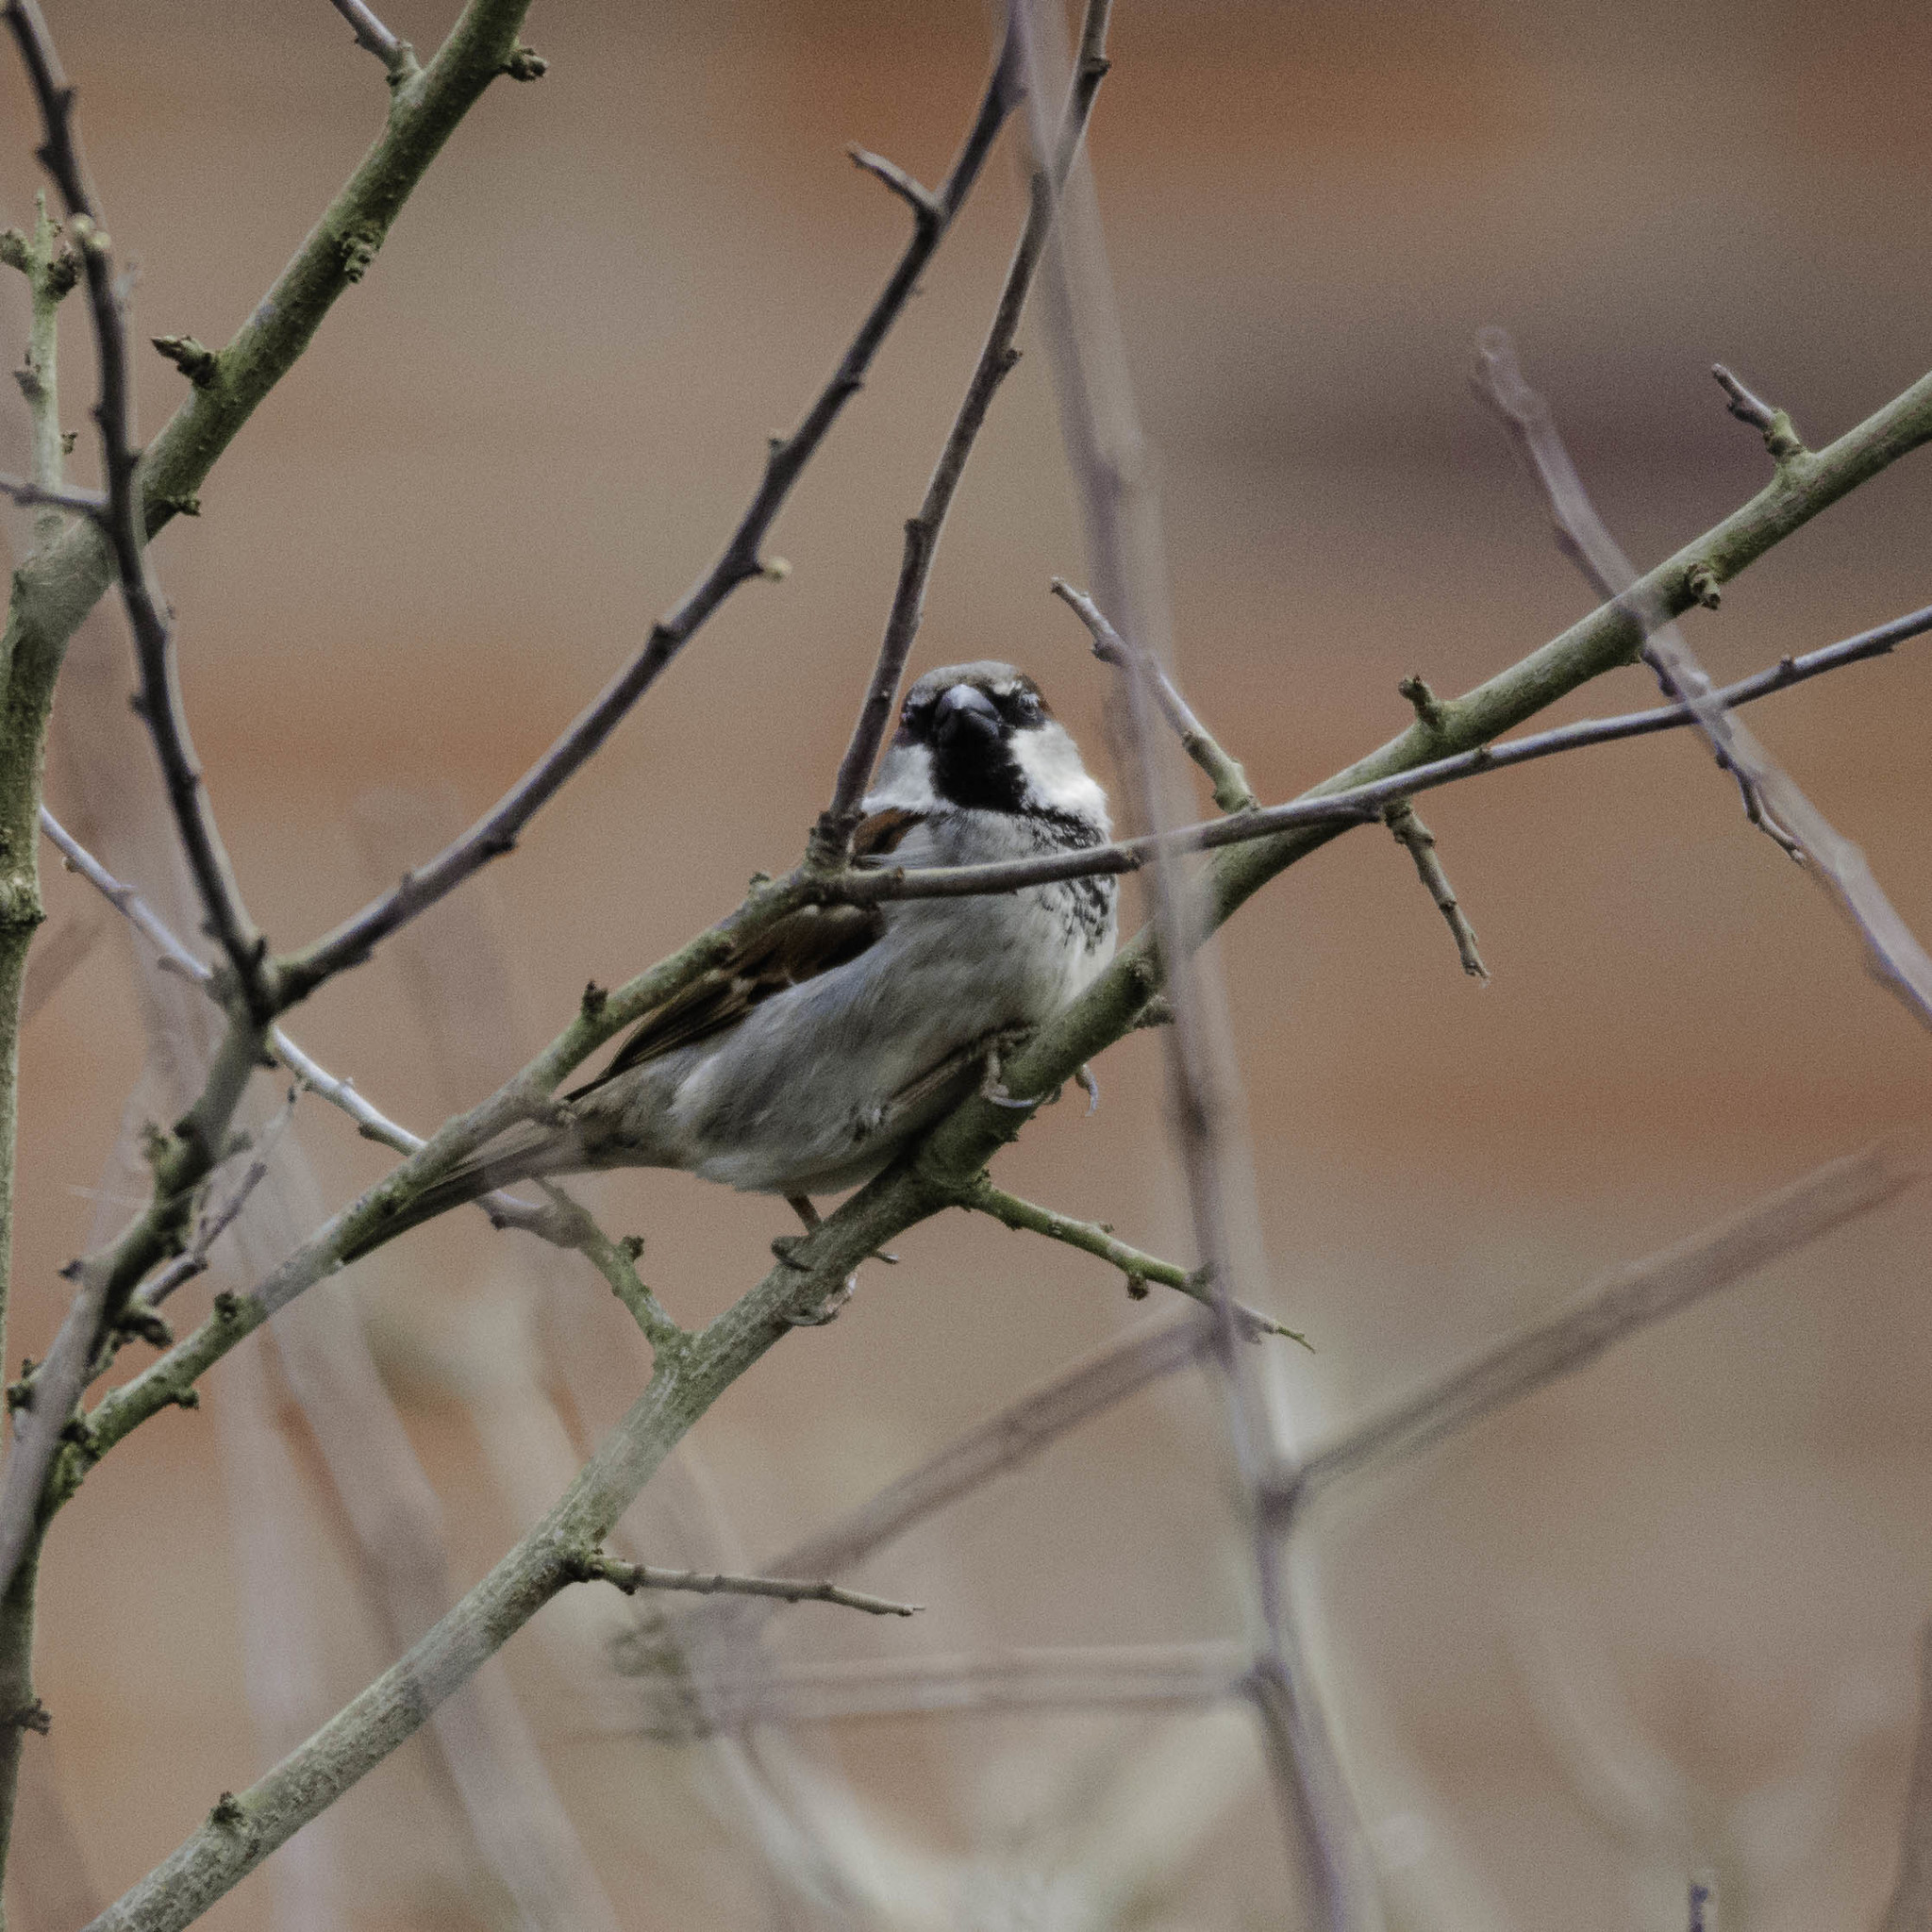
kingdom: Animalia
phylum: Chordata
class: Aves
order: Passeriformes
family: Passeridae
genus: Passer
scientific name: Passer domesticus
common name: House sparrow
